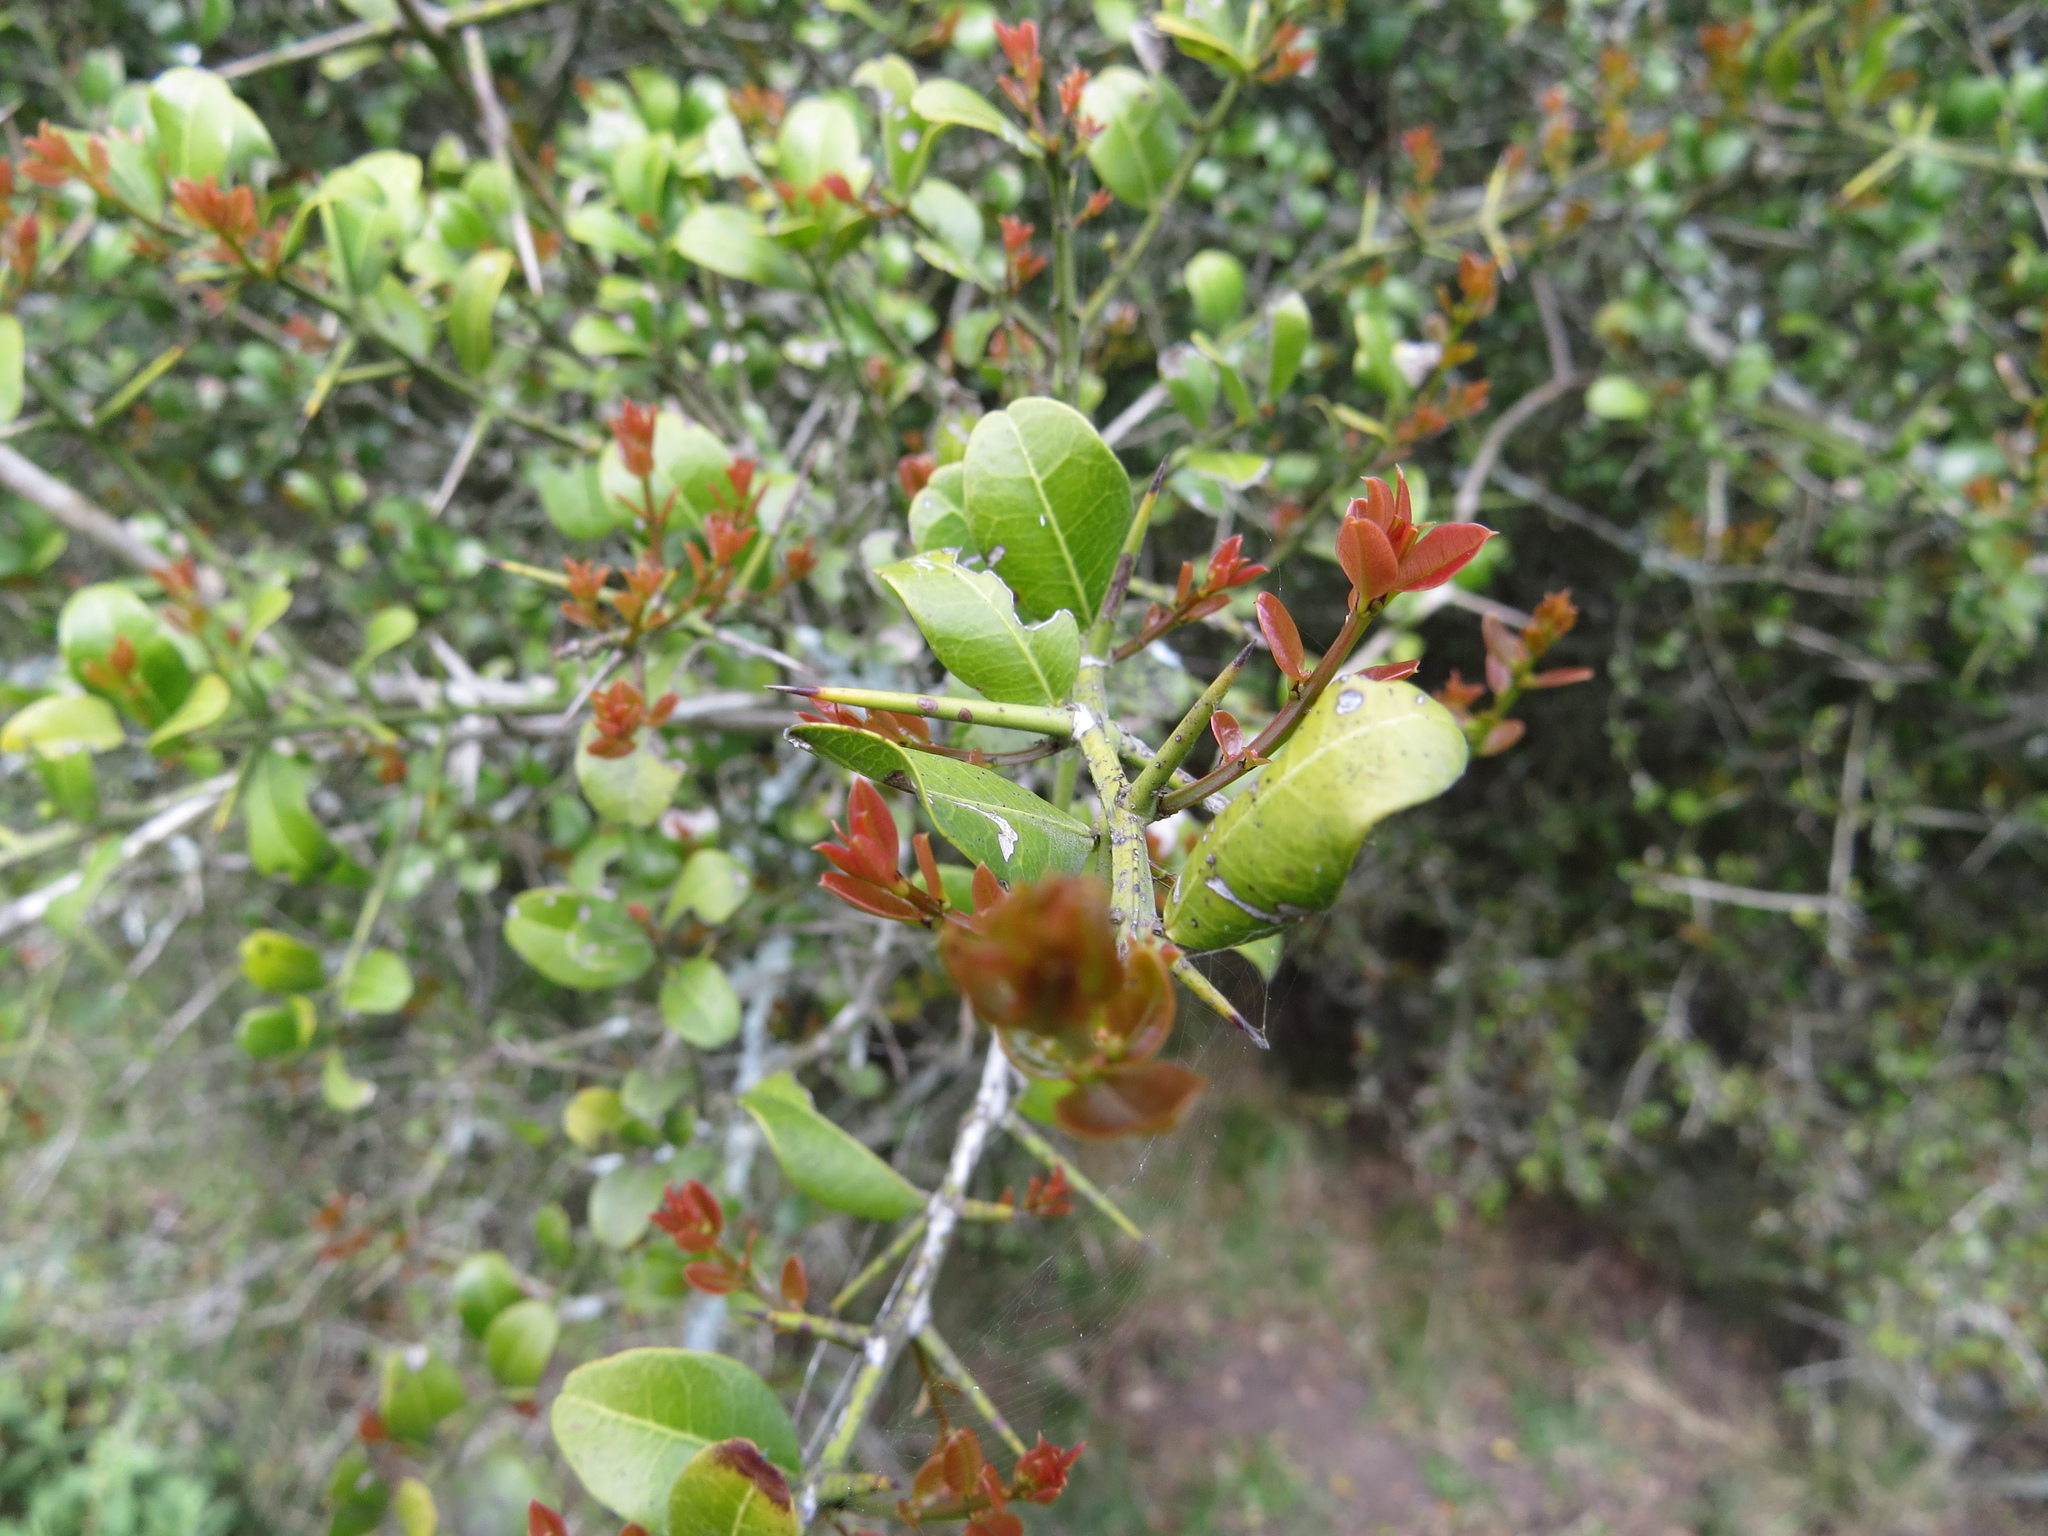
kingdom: Plantae
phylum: Tracheophyta
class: Magnoliopsida
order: Rosales
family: Rhamnaceae
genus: Scutia
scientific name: Scutia buxifolia
